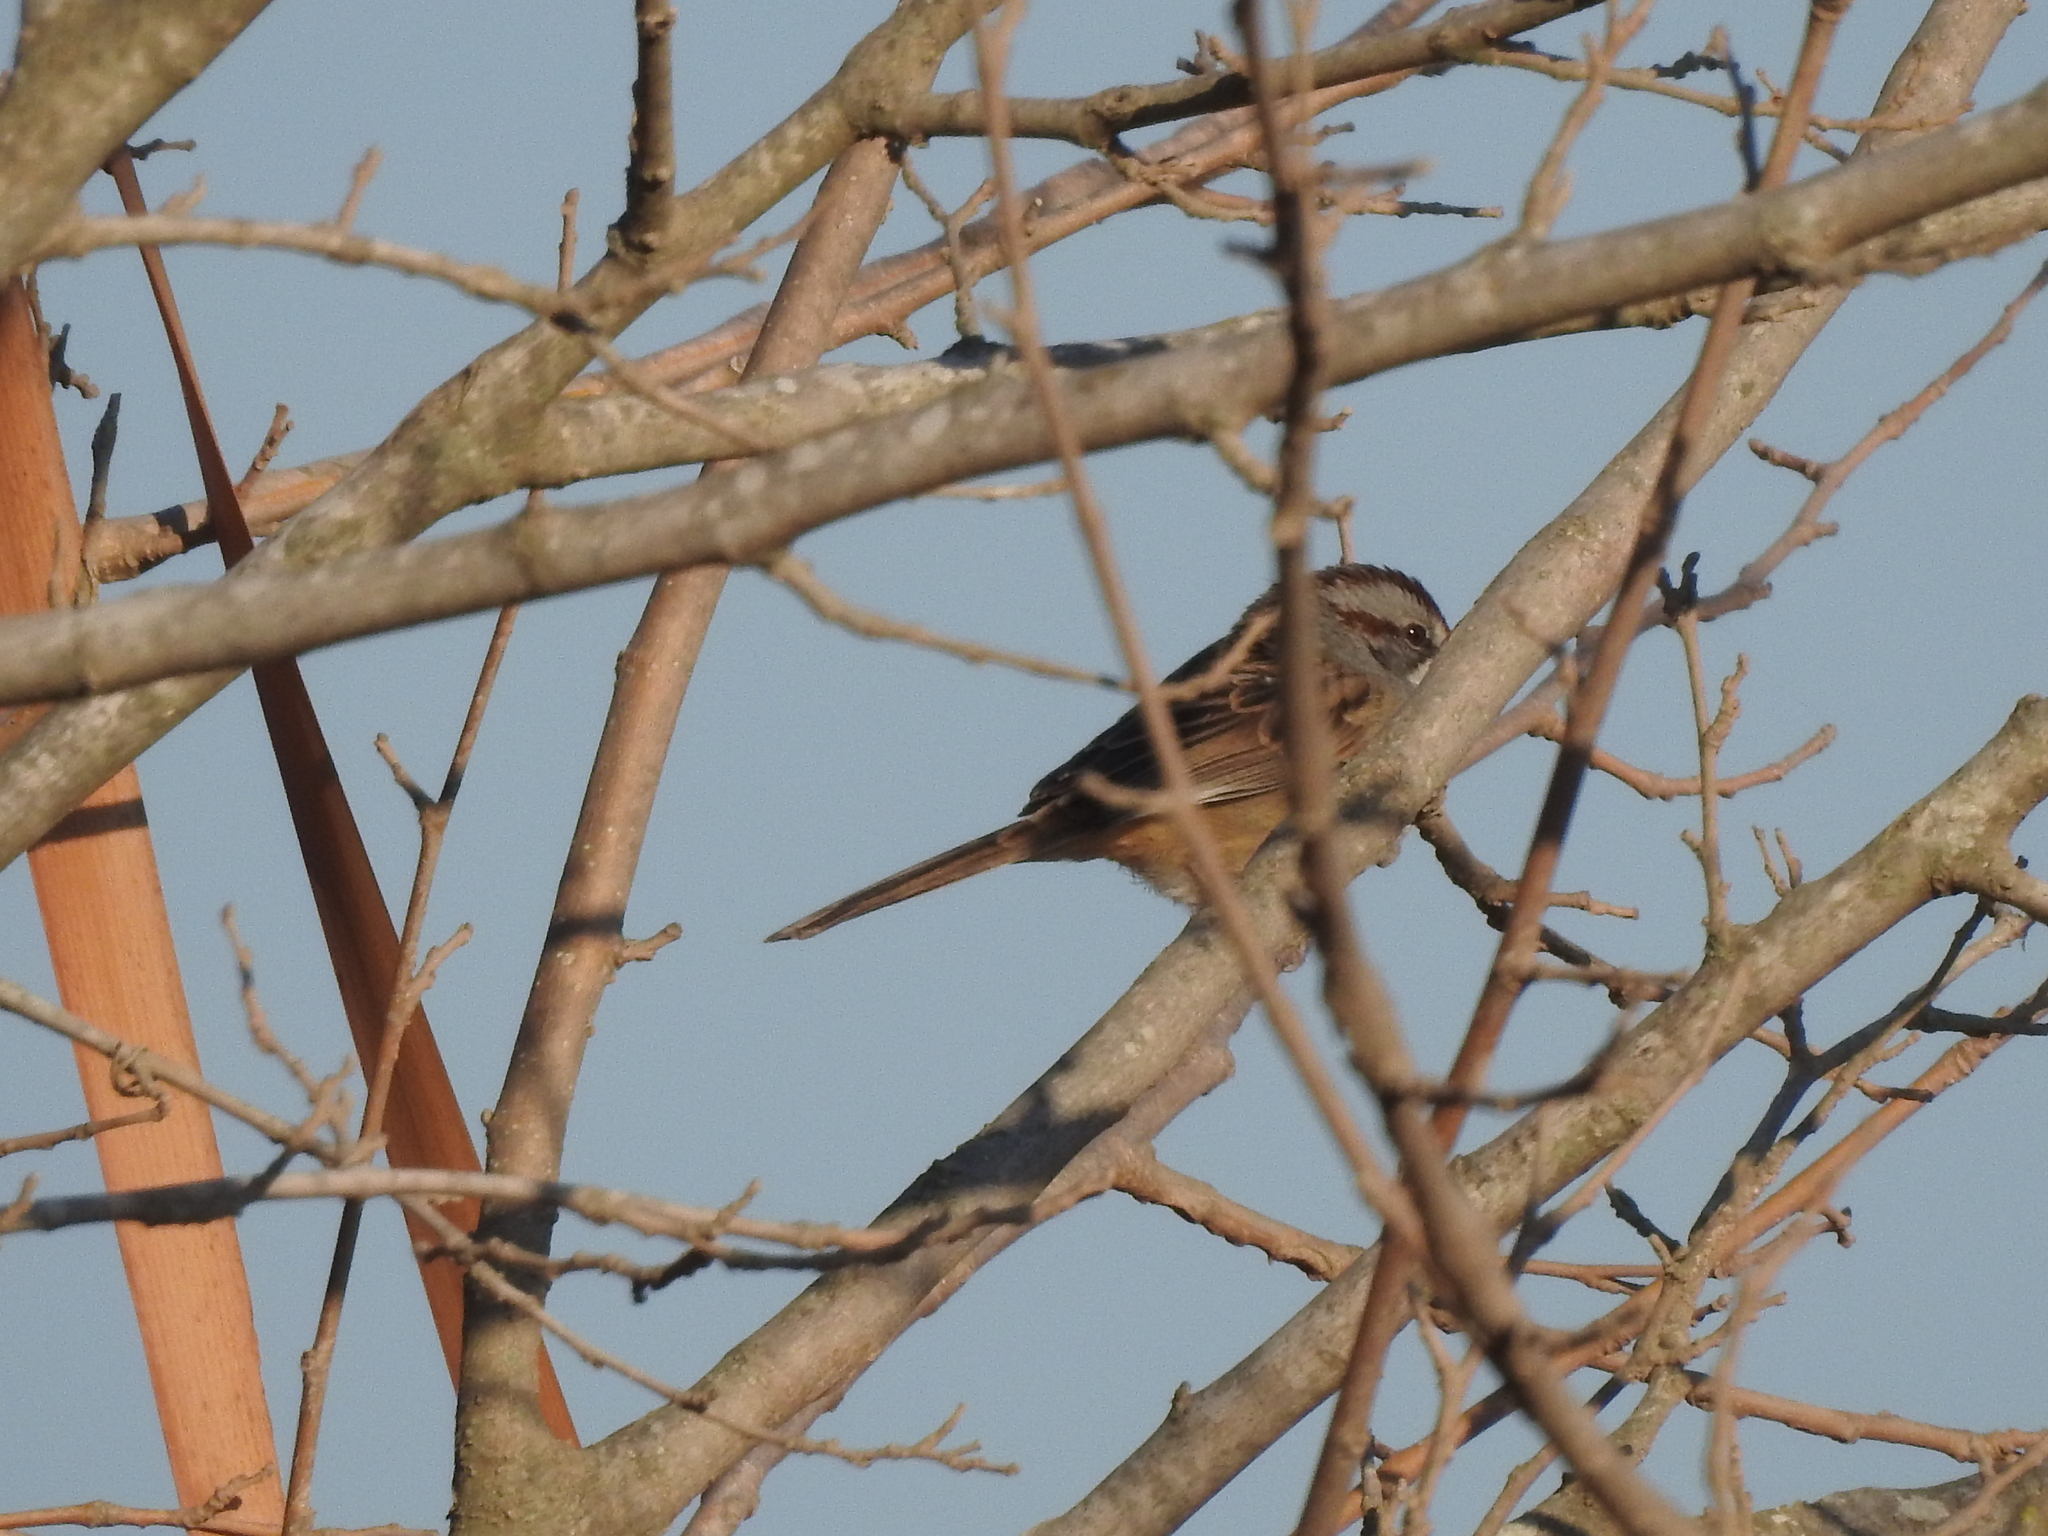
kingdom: Animalia
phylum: Chordata
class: Aves
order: Passeriformes
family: Passerellidae
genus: Rhynchospiza
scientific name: Rhynchospiza strigiceps
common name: Stripe-capped sparrow
